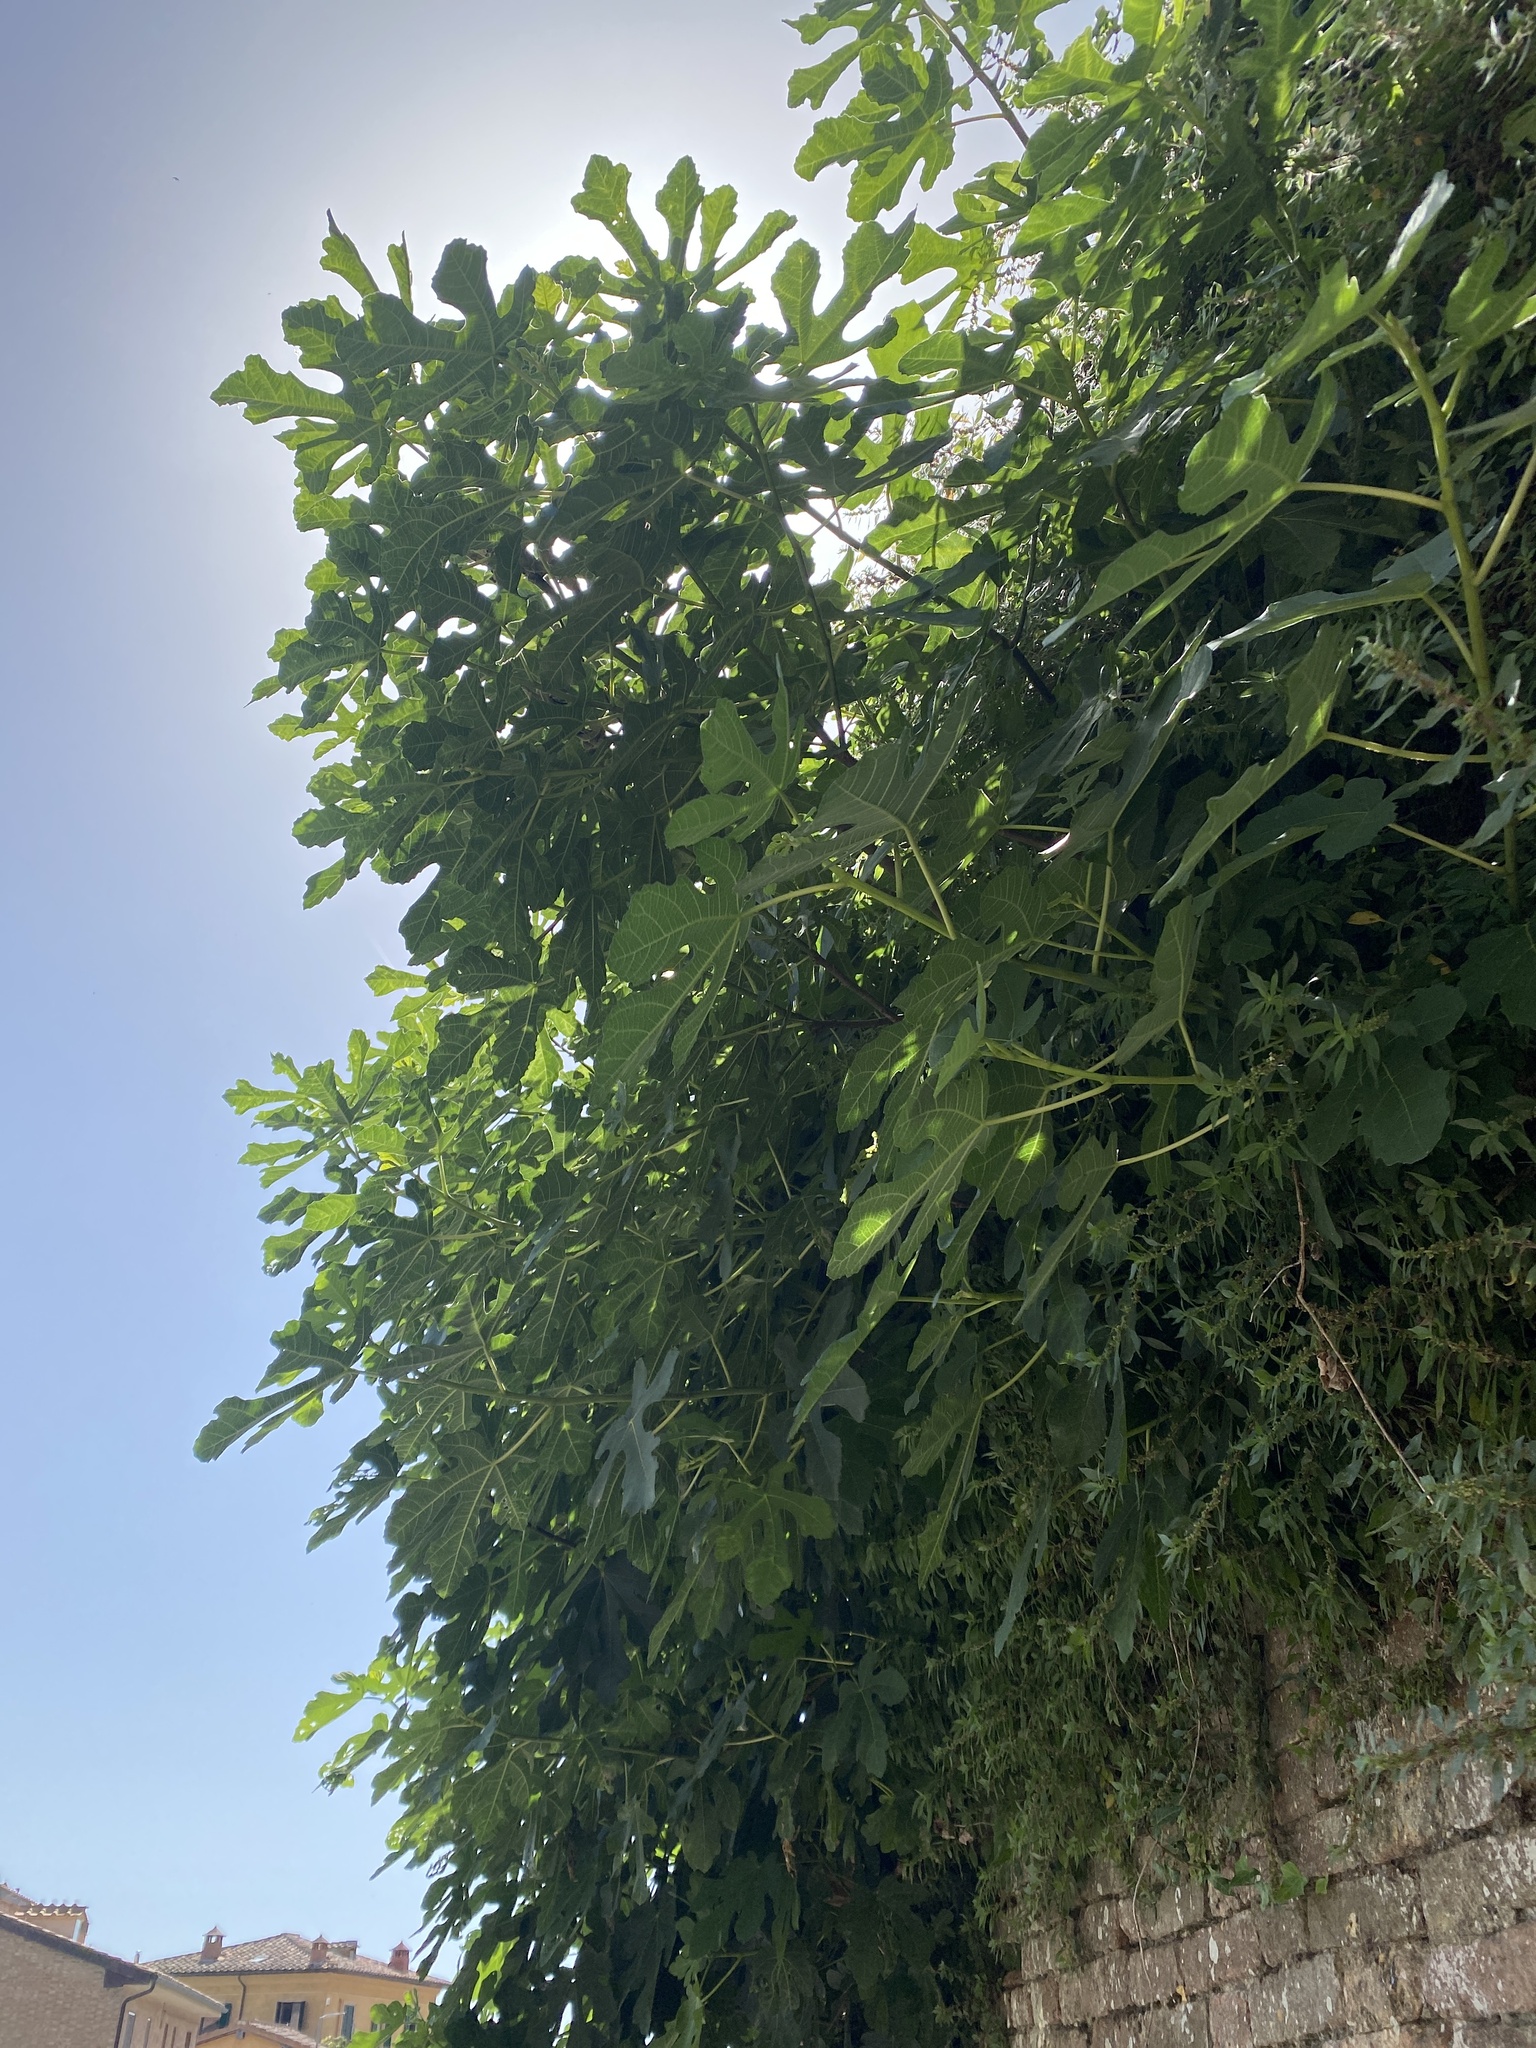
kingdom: Plantae
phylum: Tracheophyta
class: Magnoliopsida
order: Rosales
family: Moraceae
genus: Ficus
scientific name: Ficus carica
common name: Fig
